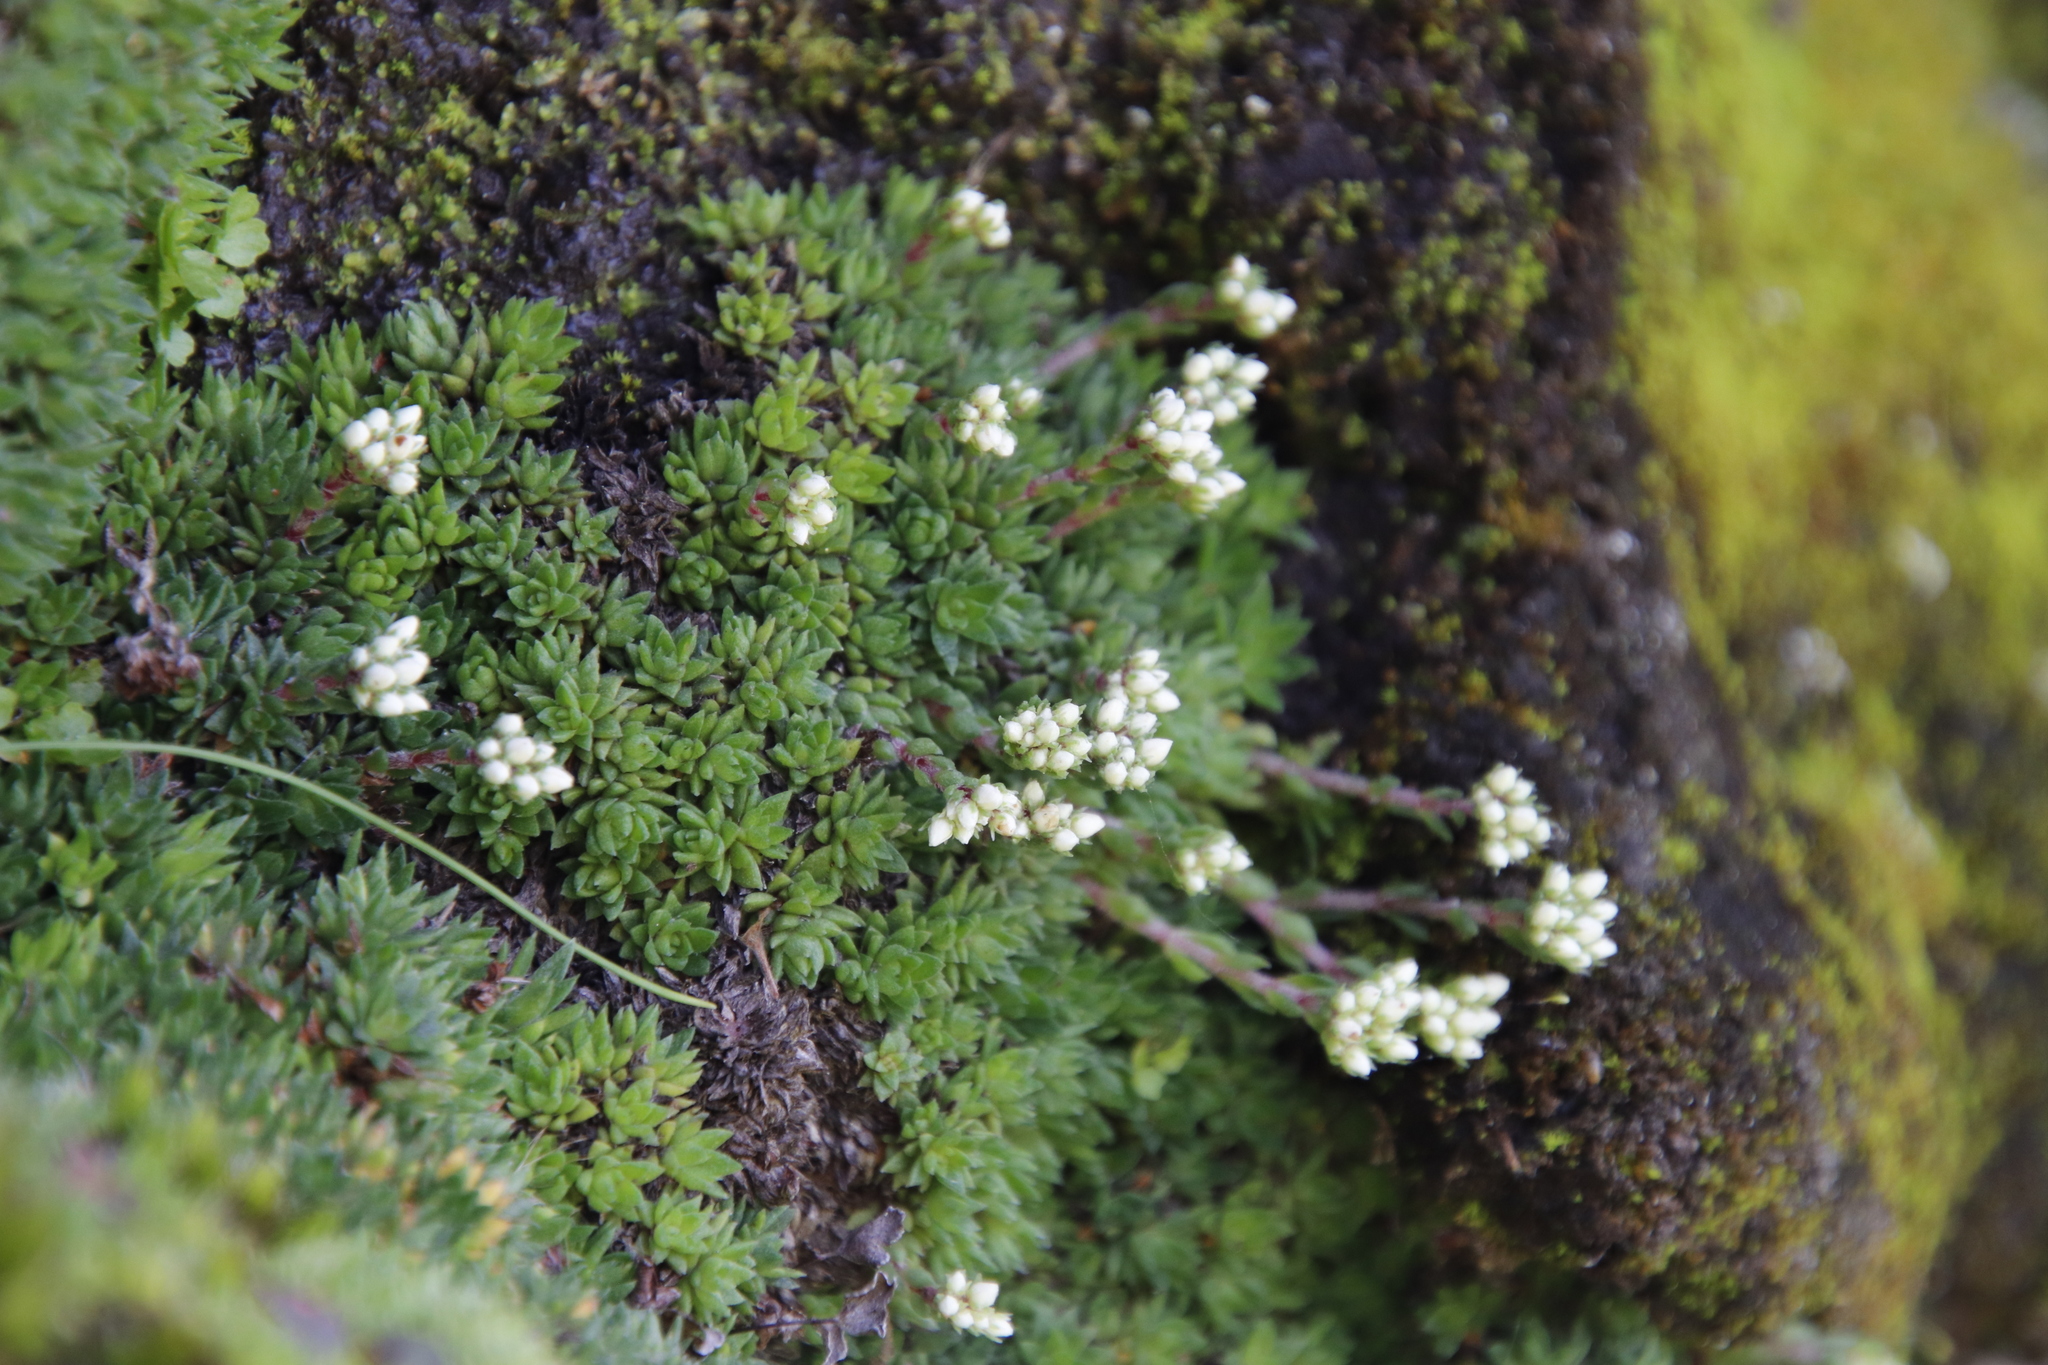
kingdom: Plantae
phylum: Tracheophyta
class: Magnoliopsida
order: Saxifragales
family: Crassulaceae
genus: Crassula
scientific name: Crassula setulosa
